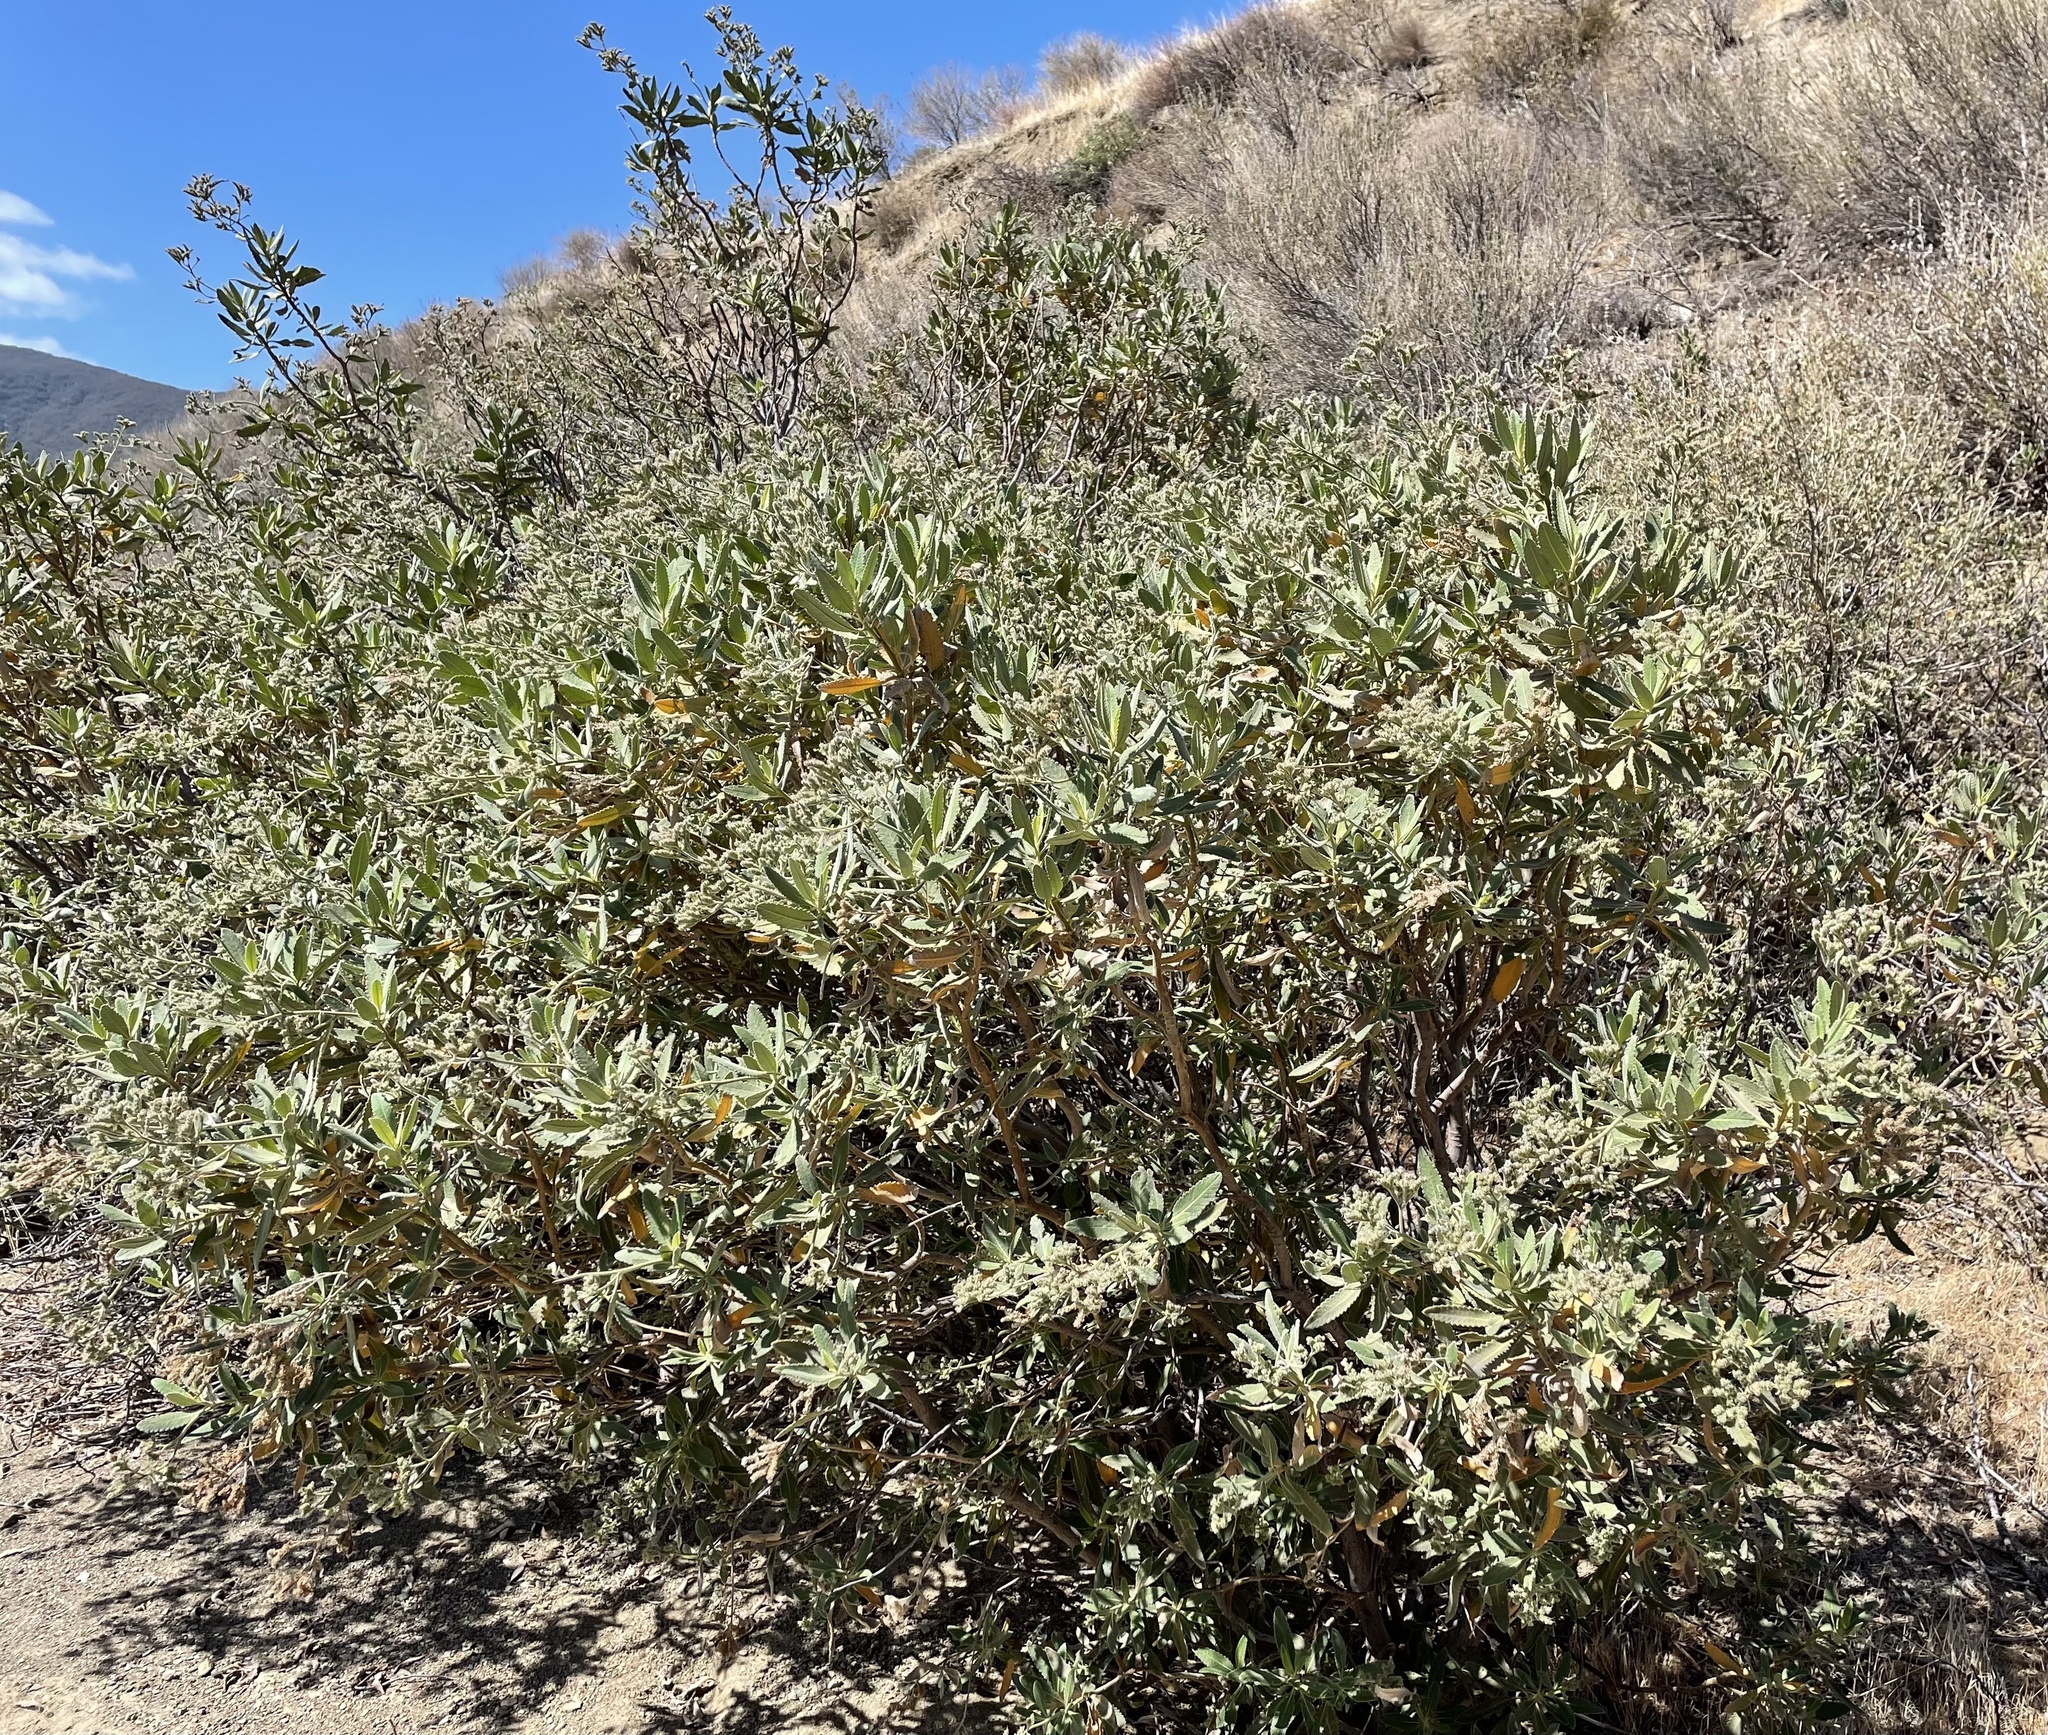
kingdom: Plantae
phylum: Tracheophyta
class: Magnoliopsida
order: Boraginales
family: Namaceae
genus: Eriodictyon
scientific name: Eriodictyon crassifolium
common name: Thick-leaf yerba-santa
